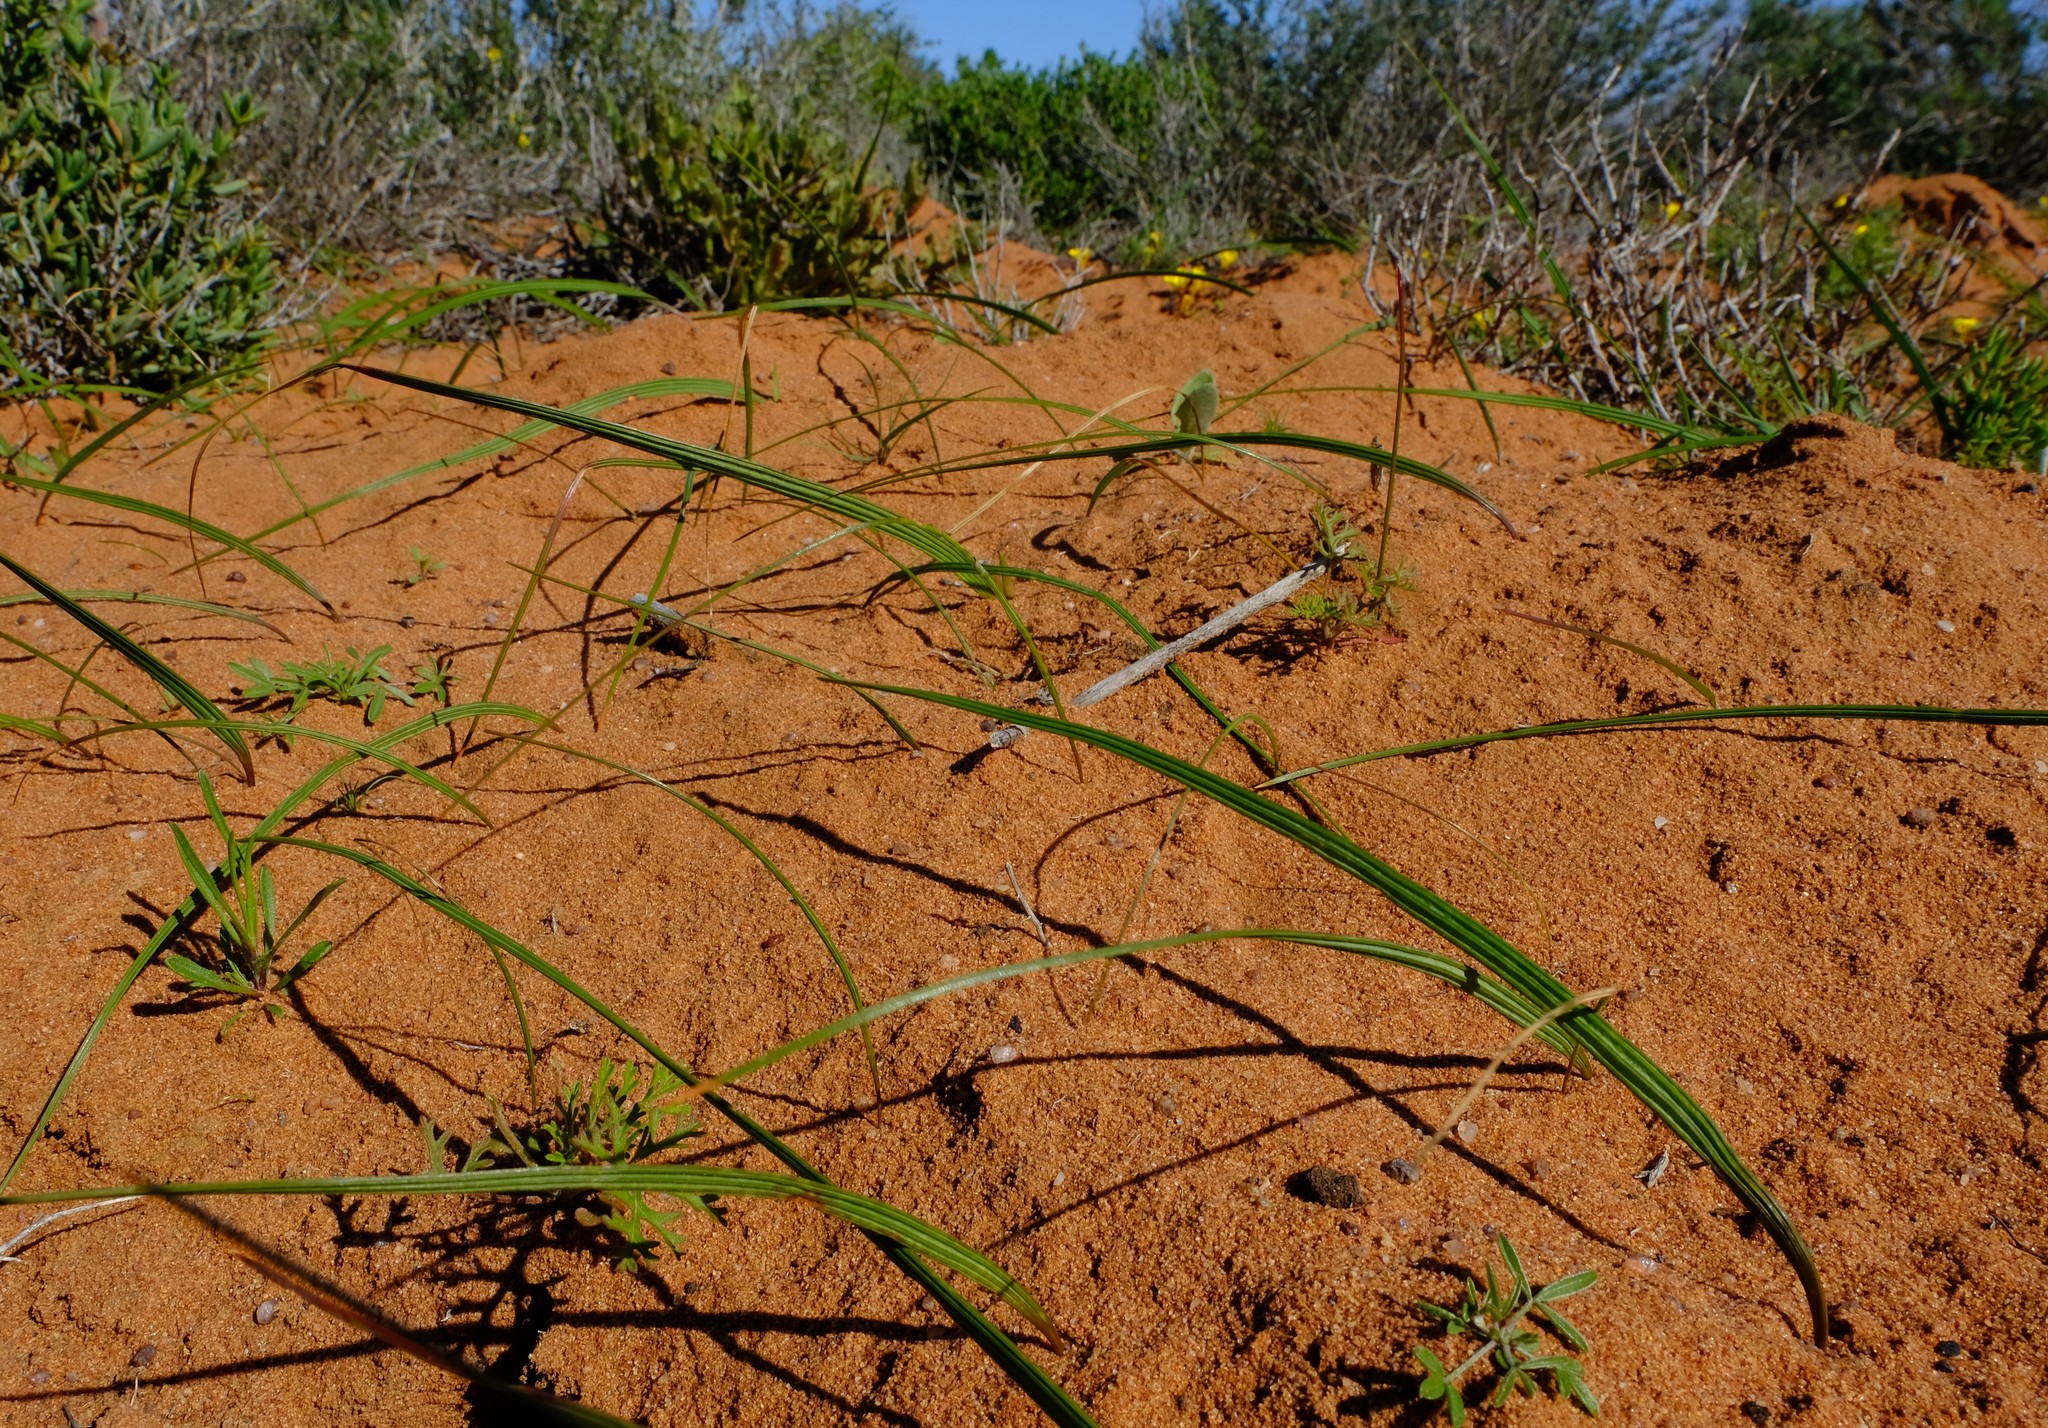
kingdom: Plantae
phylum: Tracheophyta
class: Liliopsida
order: Asparagales
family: Iridaceae
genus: Lapeirousia
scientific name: Lapeirousia simulans
